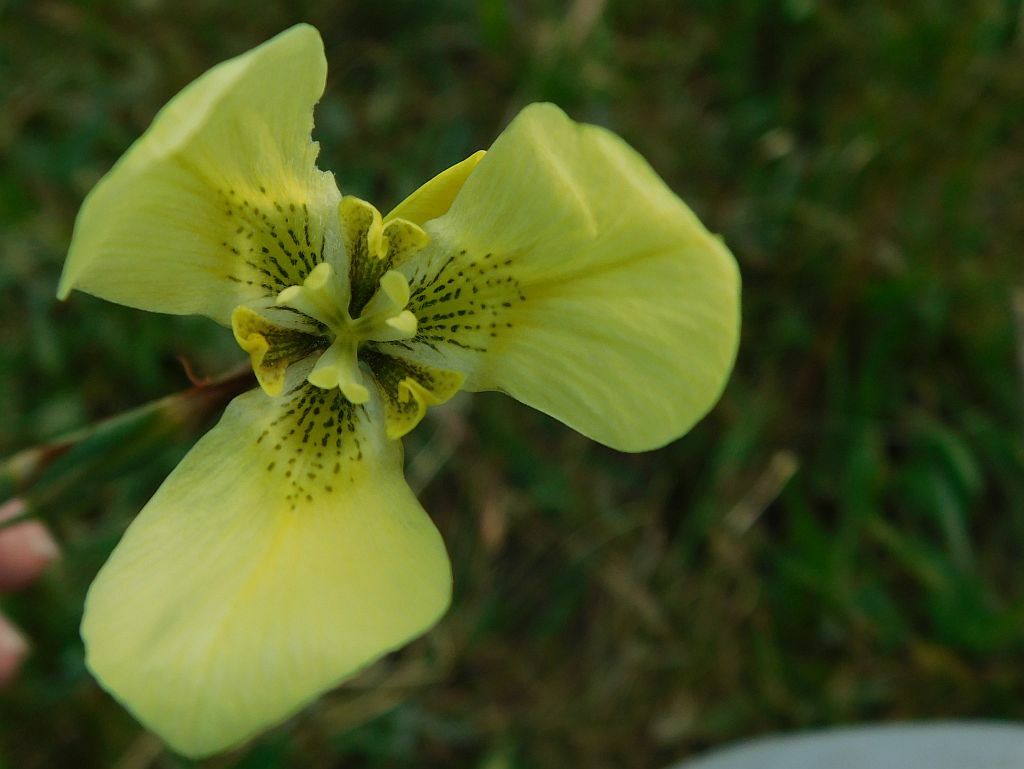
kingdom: Plantae
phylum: Tracheophyta
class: Liliopsida
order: Asparagales
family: Iridaceae
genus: Moraea
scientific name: Moraea bellendenii
